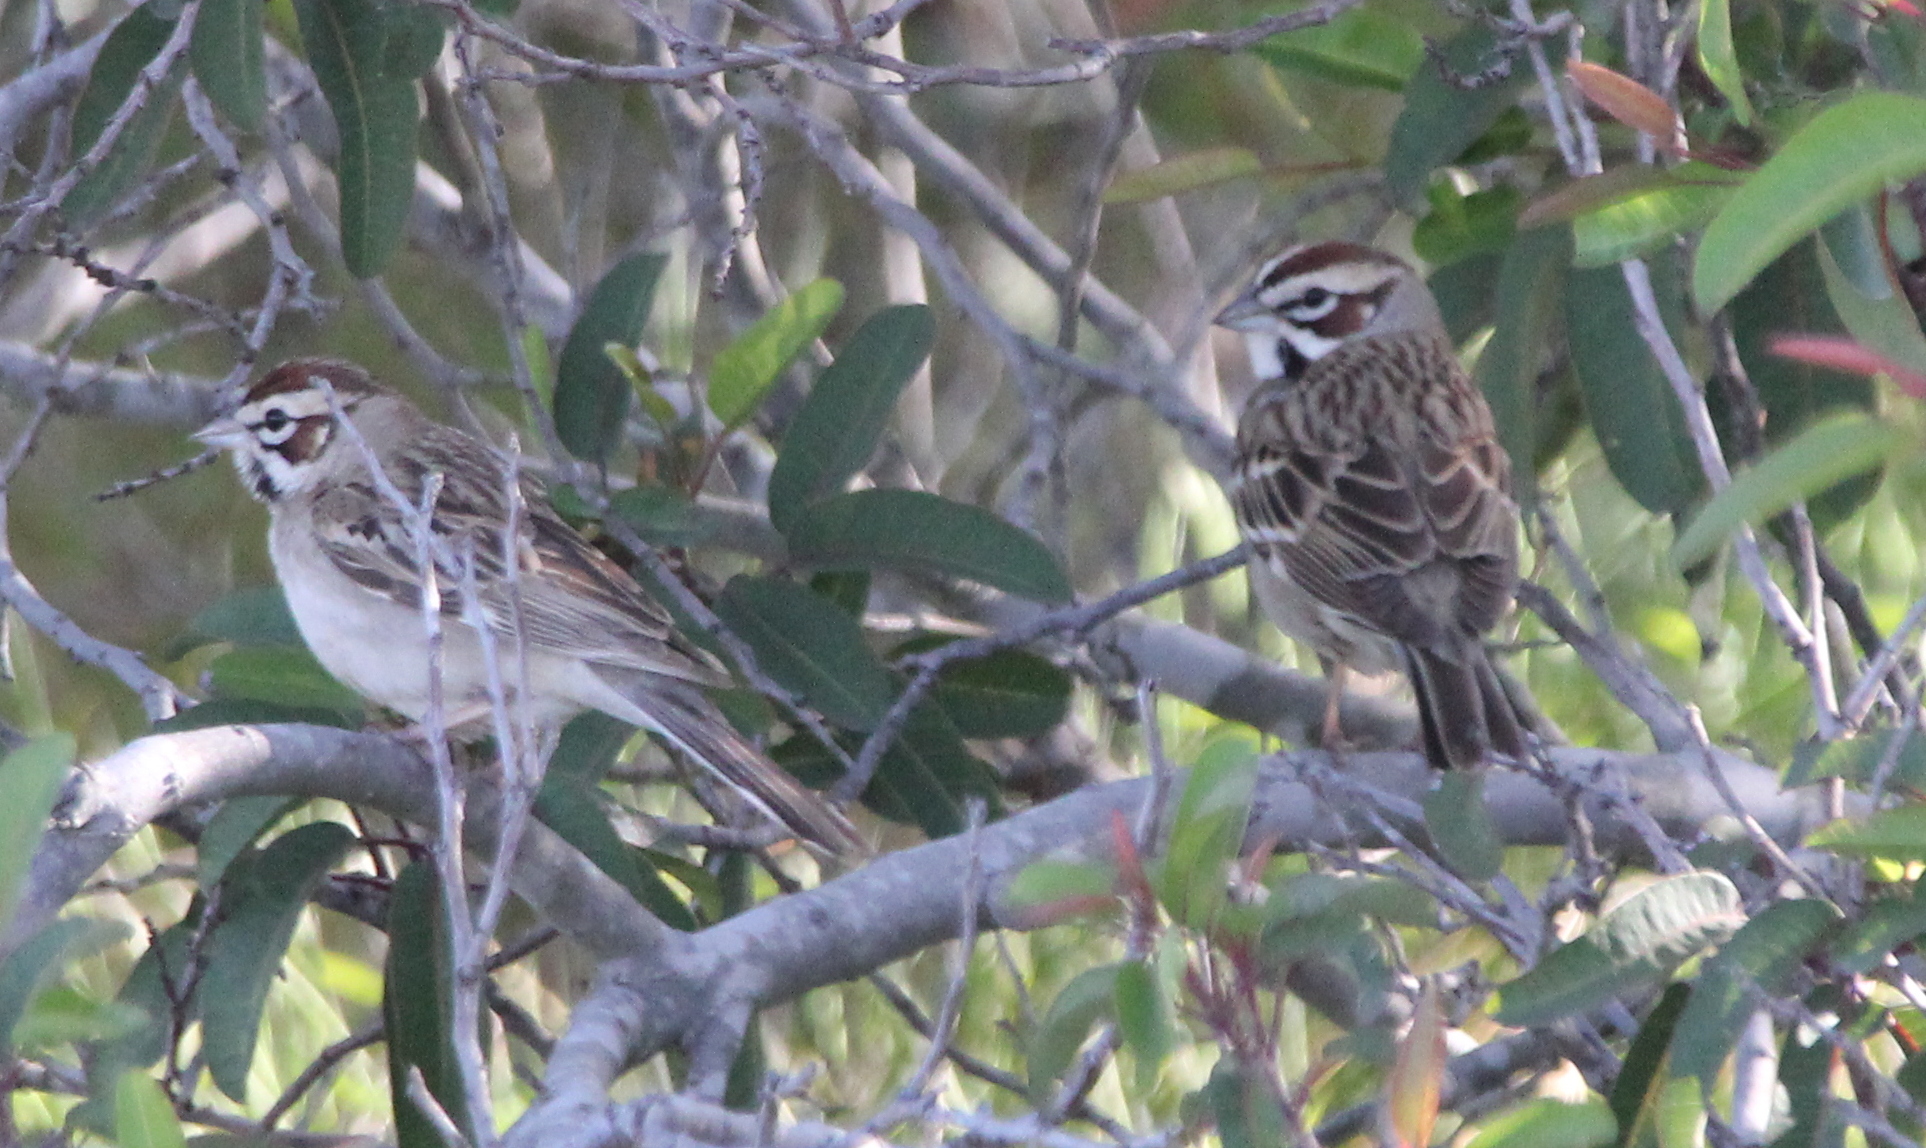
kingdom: Animalia
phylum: Chordata
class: Aves
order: Passeriformes
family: Passerellidae
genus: Chondestes
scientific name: Chondestes grammacus
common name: Lark sparrow
